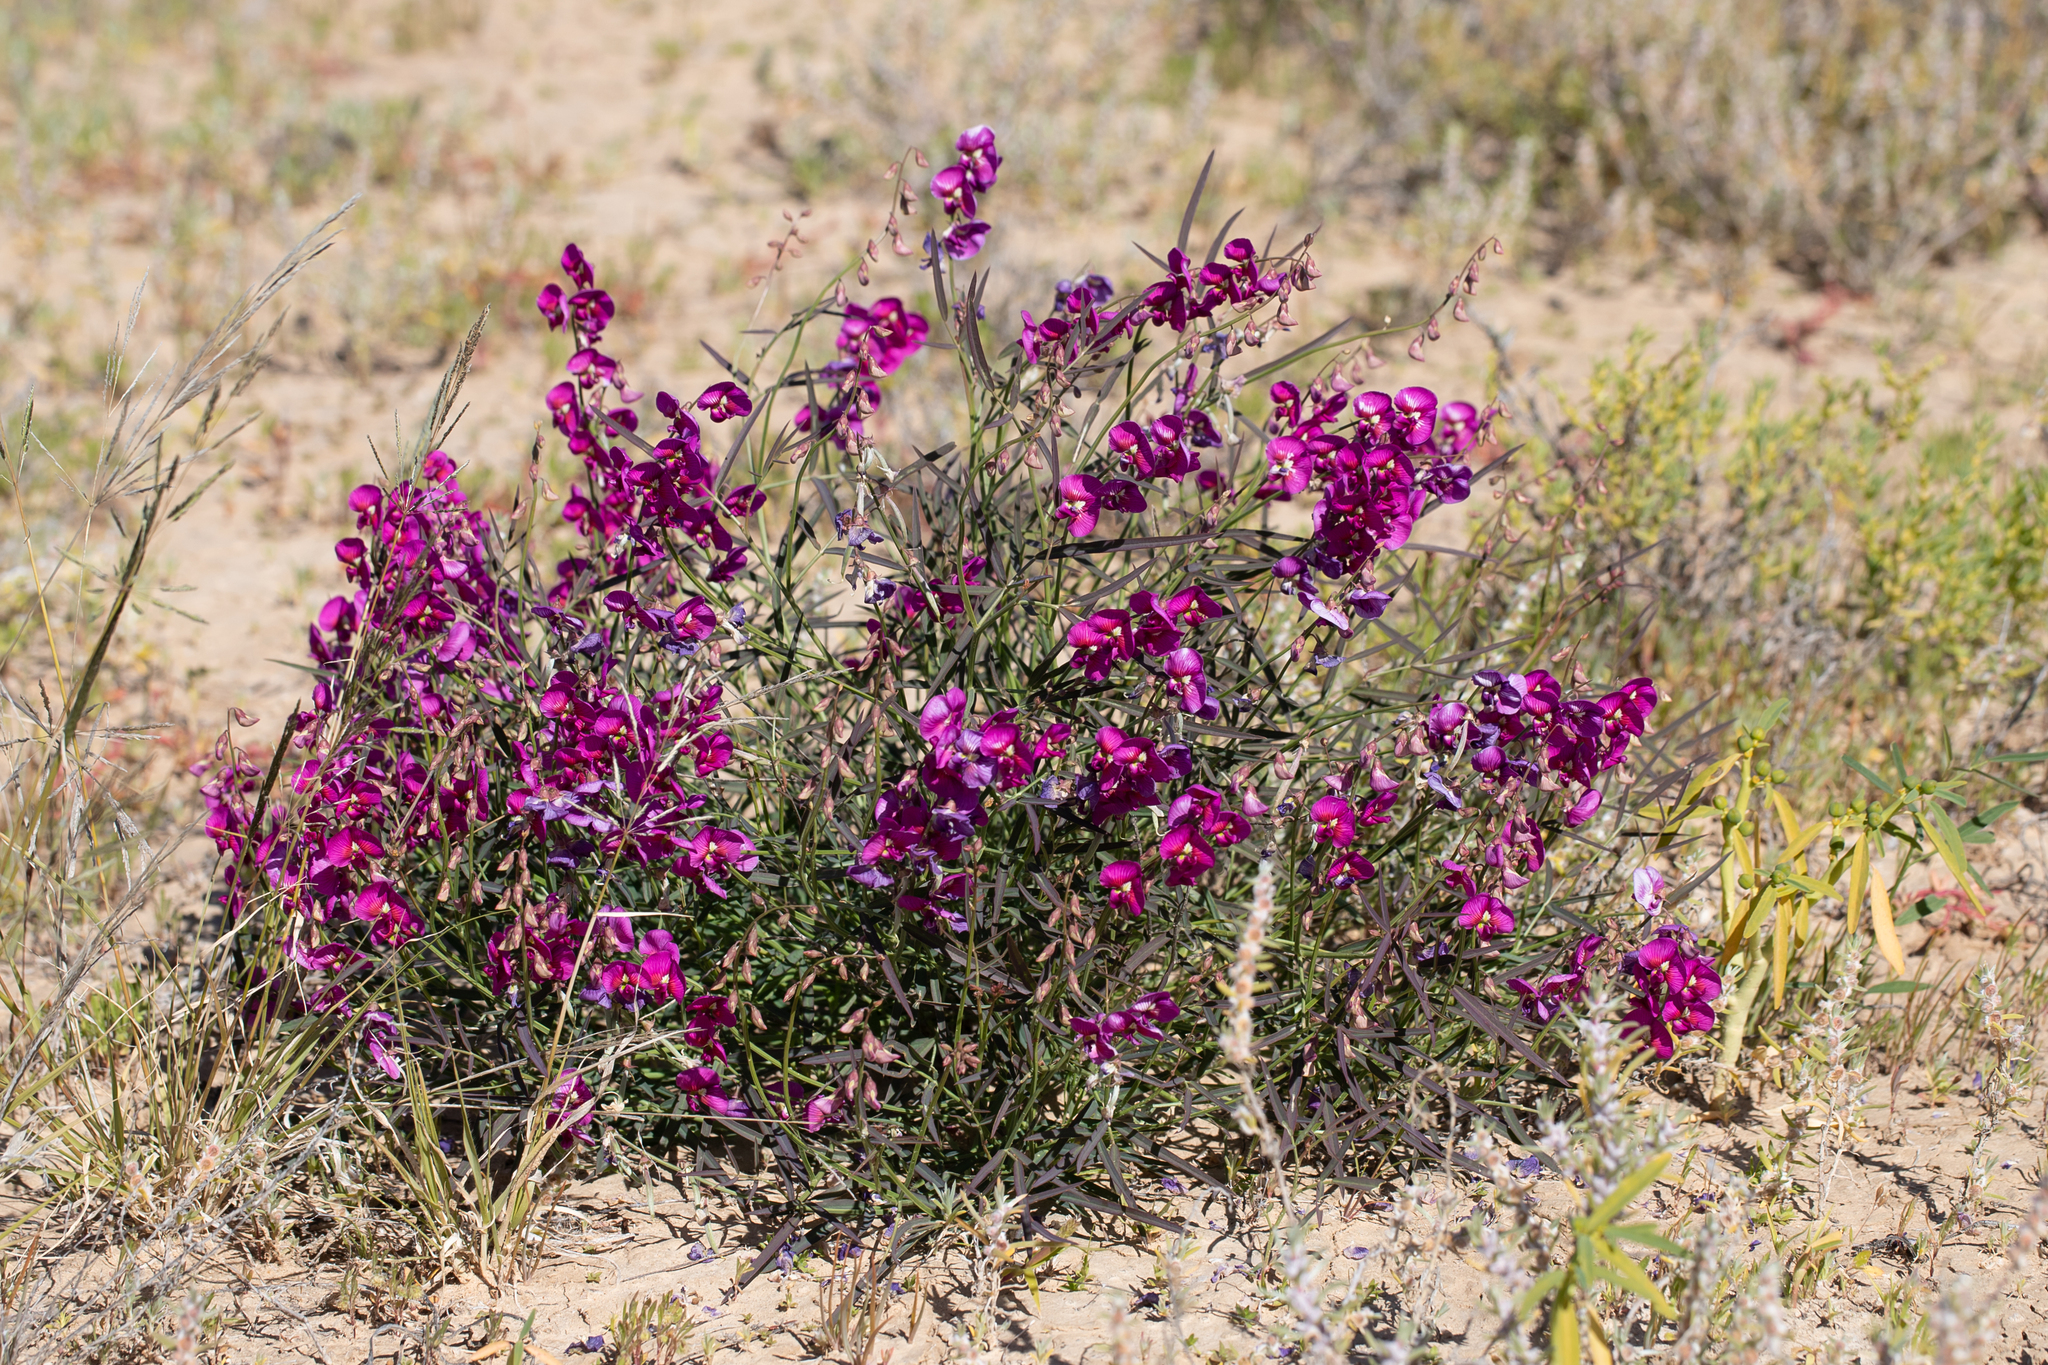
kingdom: Plantae
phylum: Tracheophyta
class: Magnoliopsida
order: Fabales
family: Fabaceae
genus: Swainsona
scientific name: Swainsona campylantha
